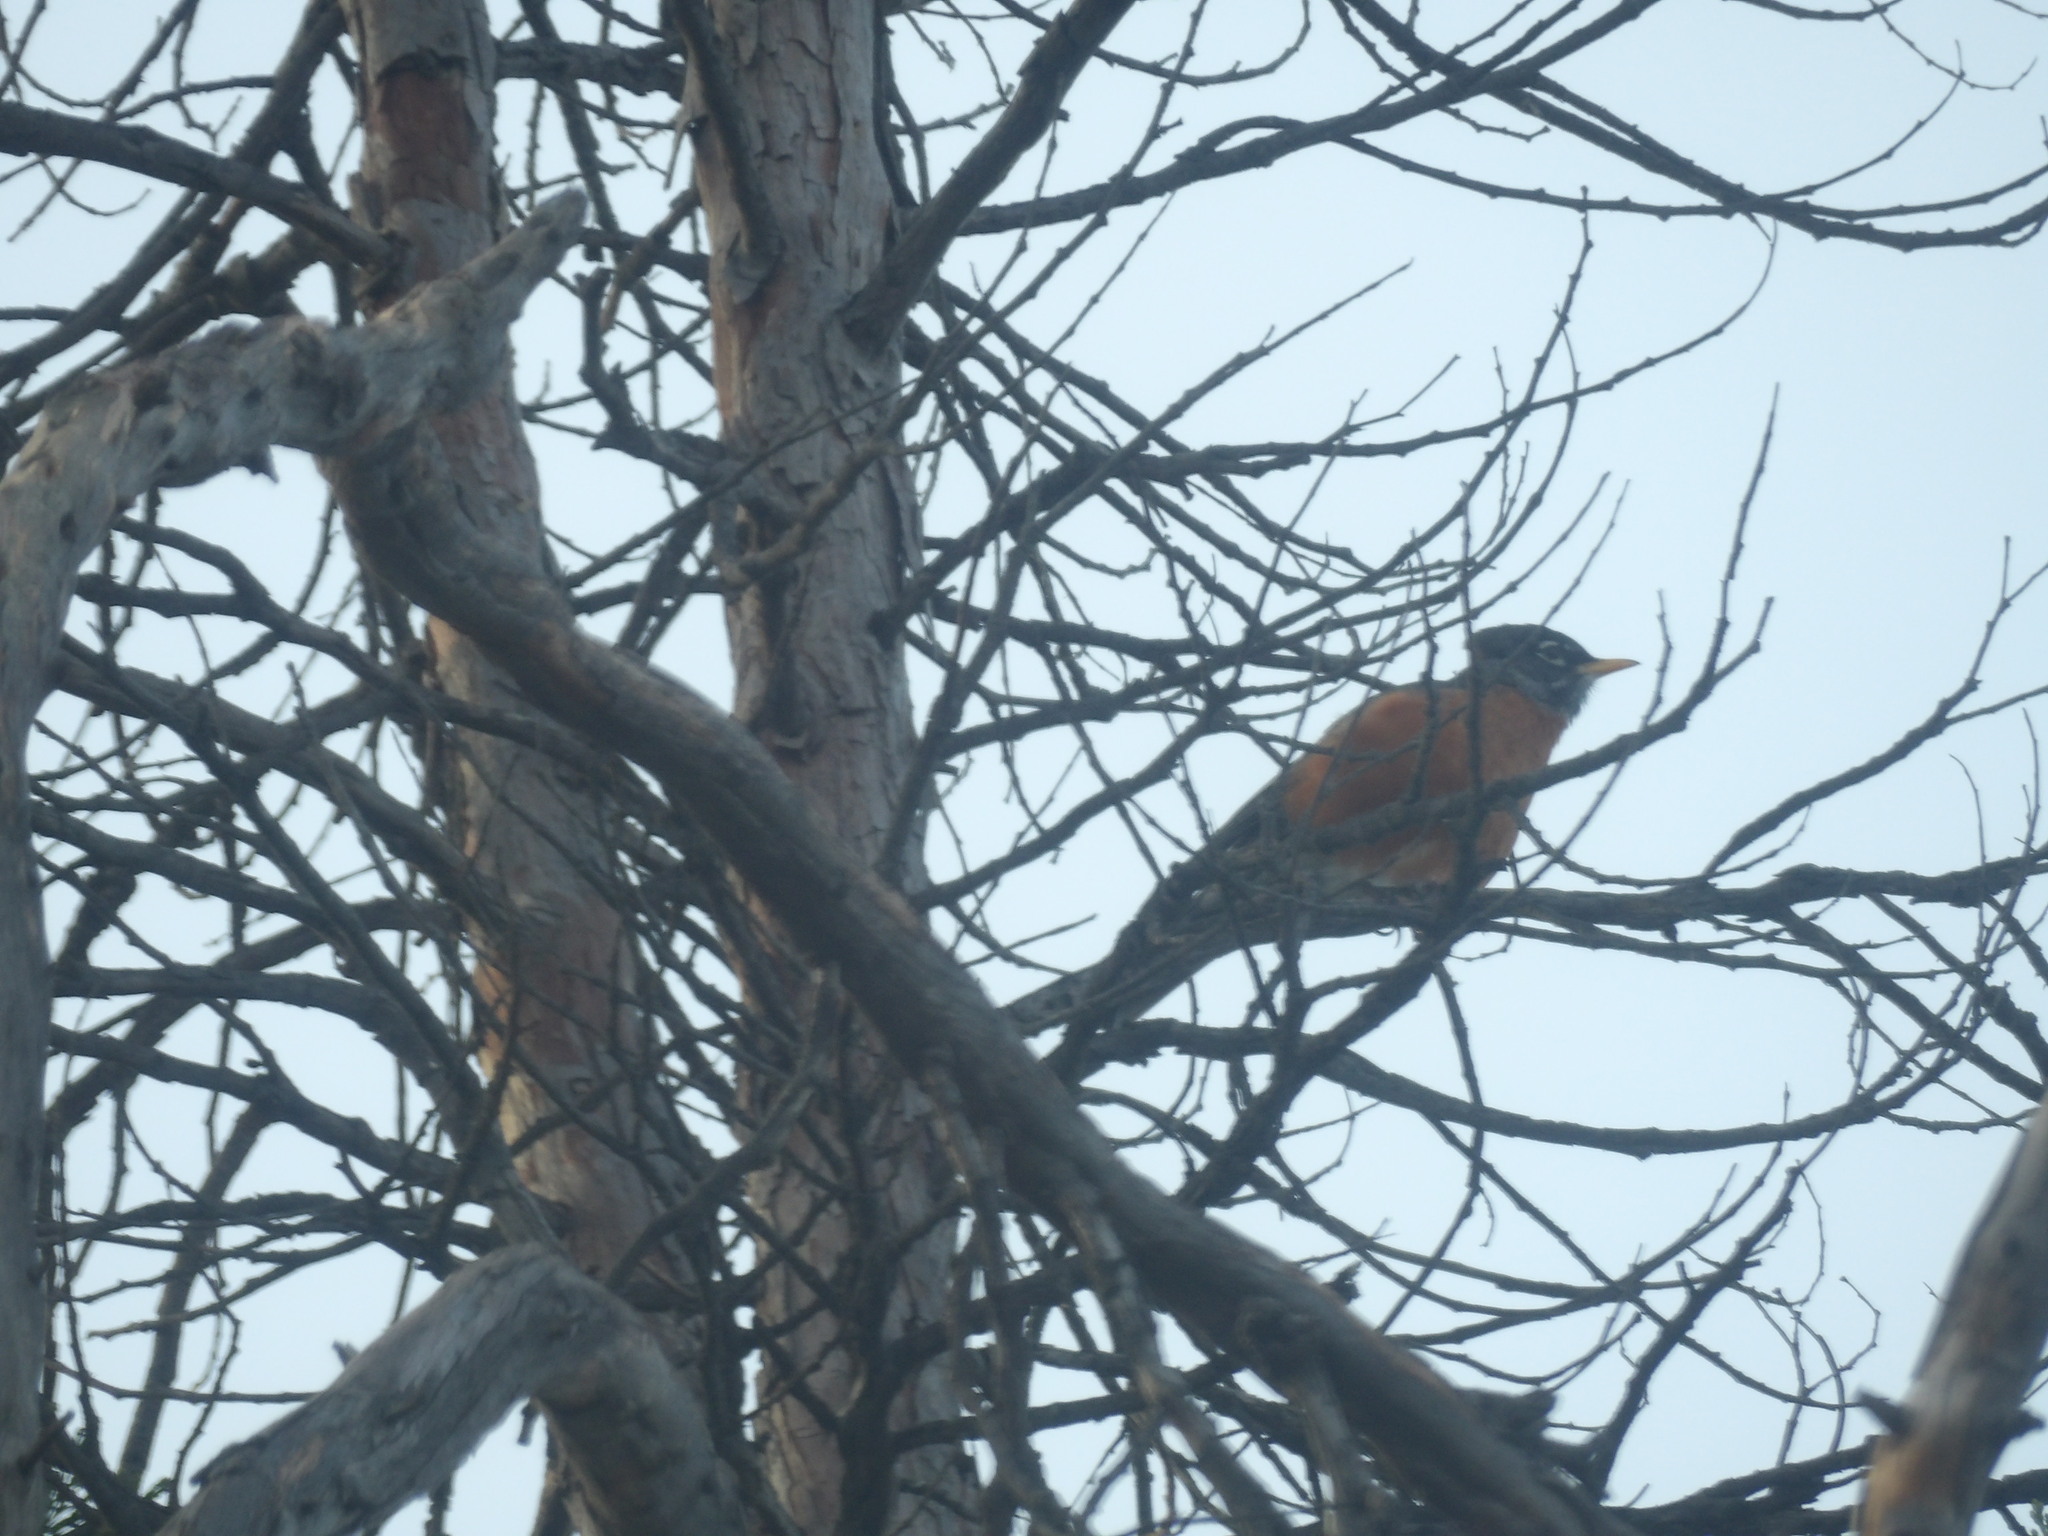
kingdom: Animalia
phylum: Chordata
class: Aves
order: Passeriformes
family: Turdidae
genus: Turdus
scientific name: Turdus migratorius
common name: American robin
